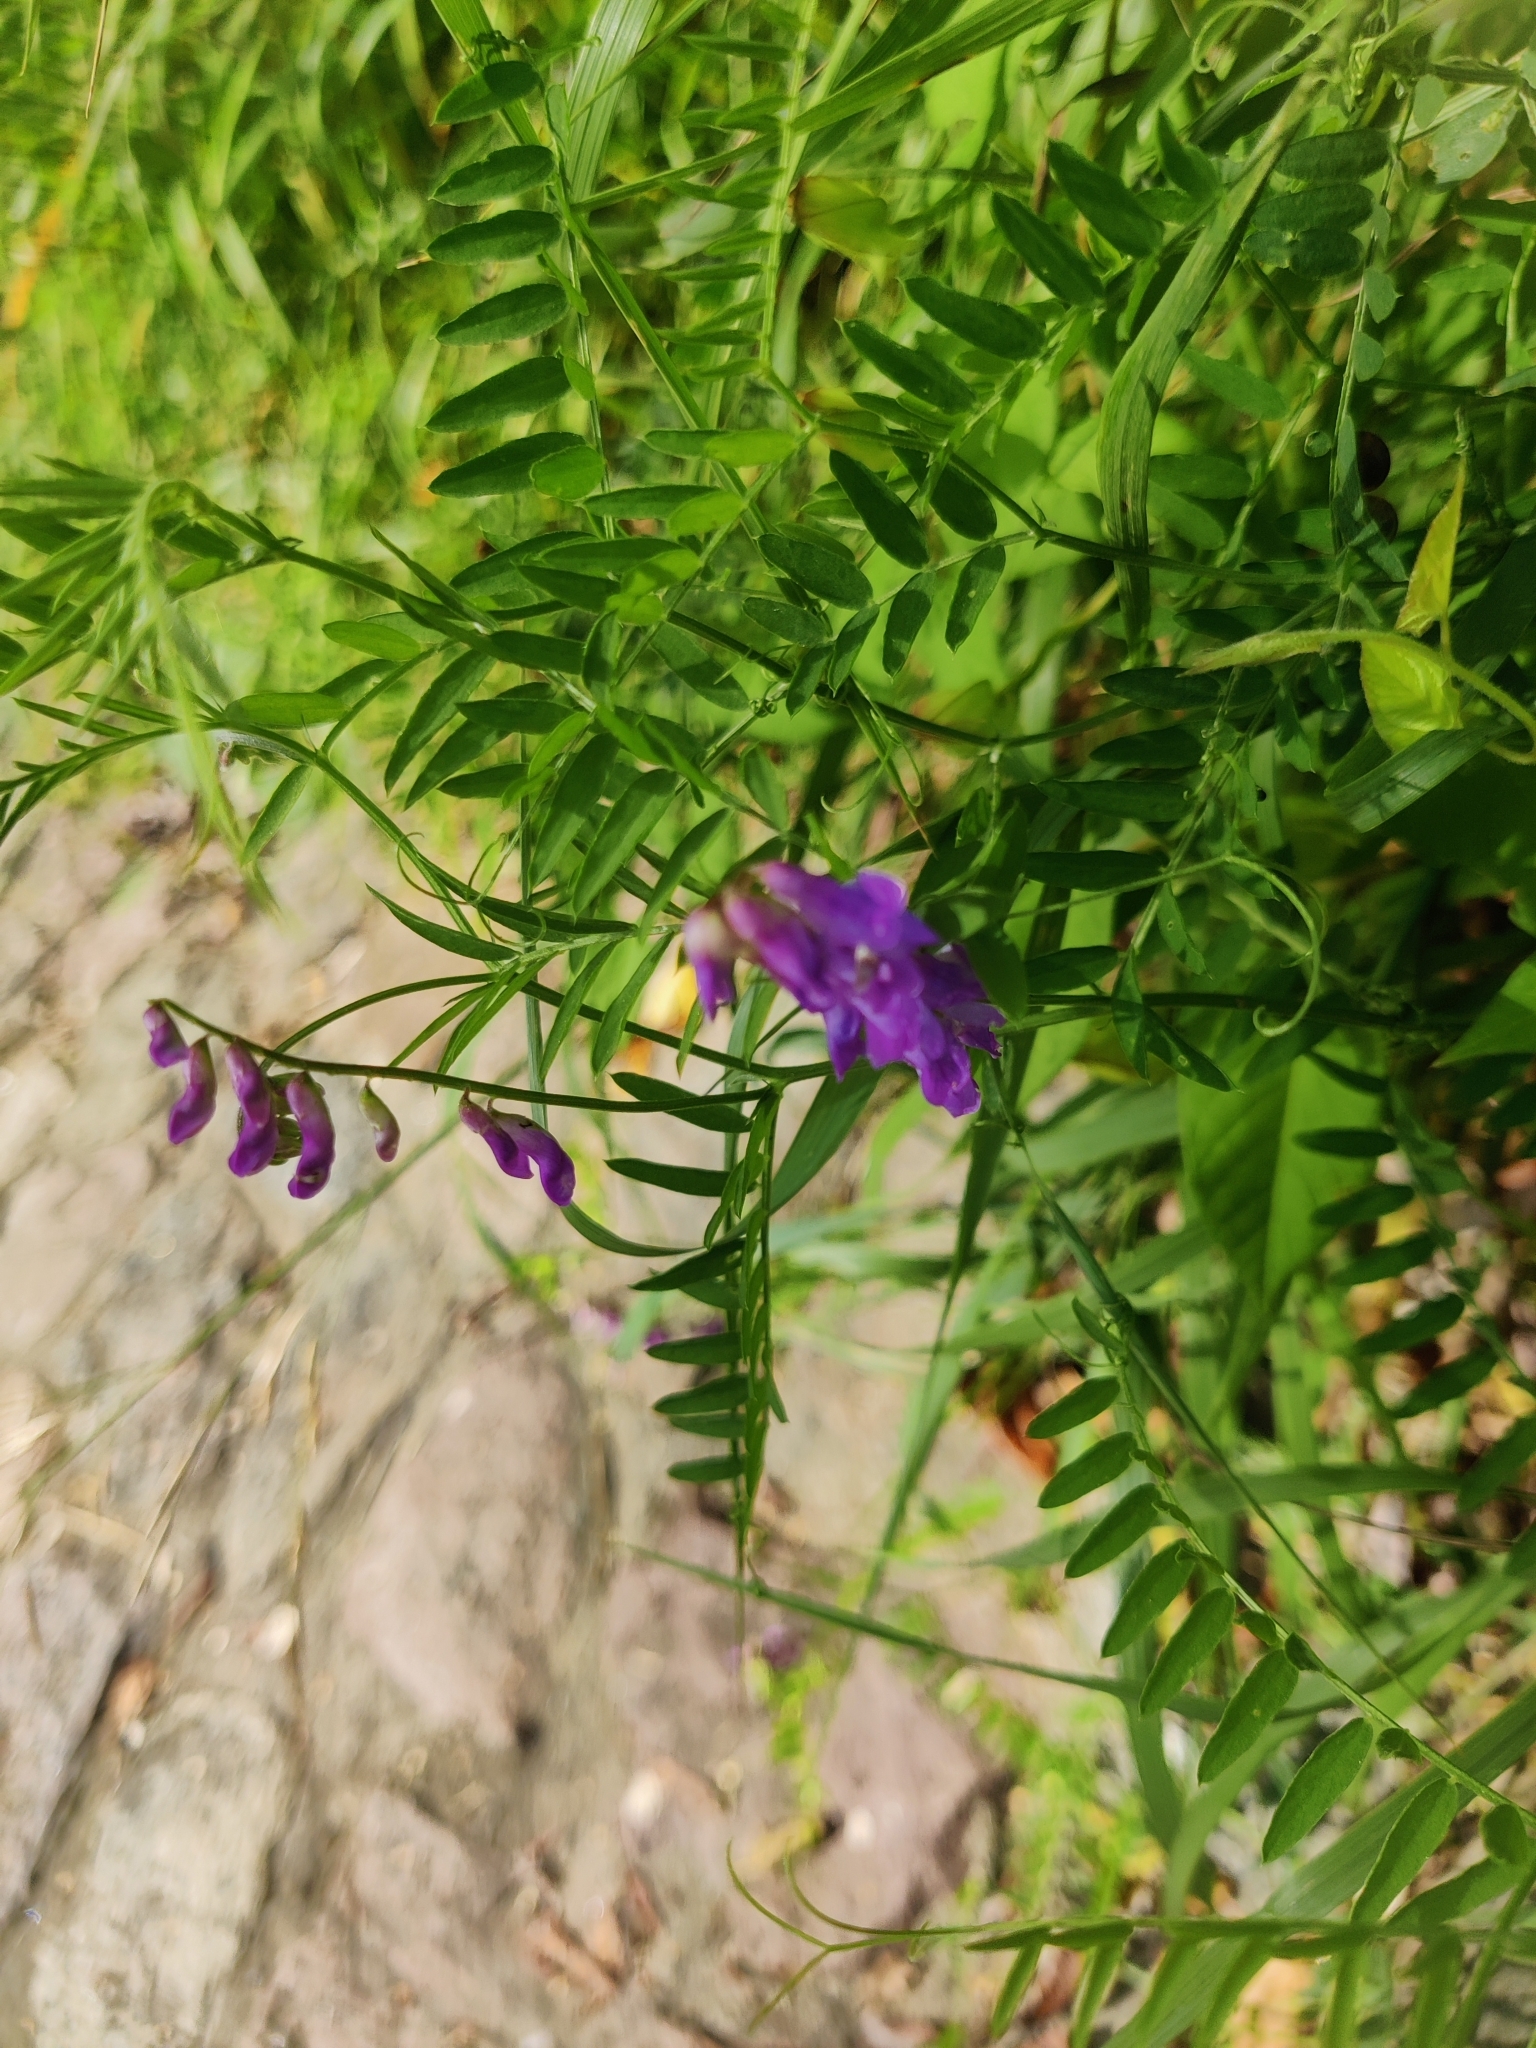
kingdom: Plantae
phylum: Tracheophyta
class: Magnoliopsida
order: Fabales
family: Fabaceae
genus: Vicia
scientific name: Vicia cracca
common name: Bird vetch
